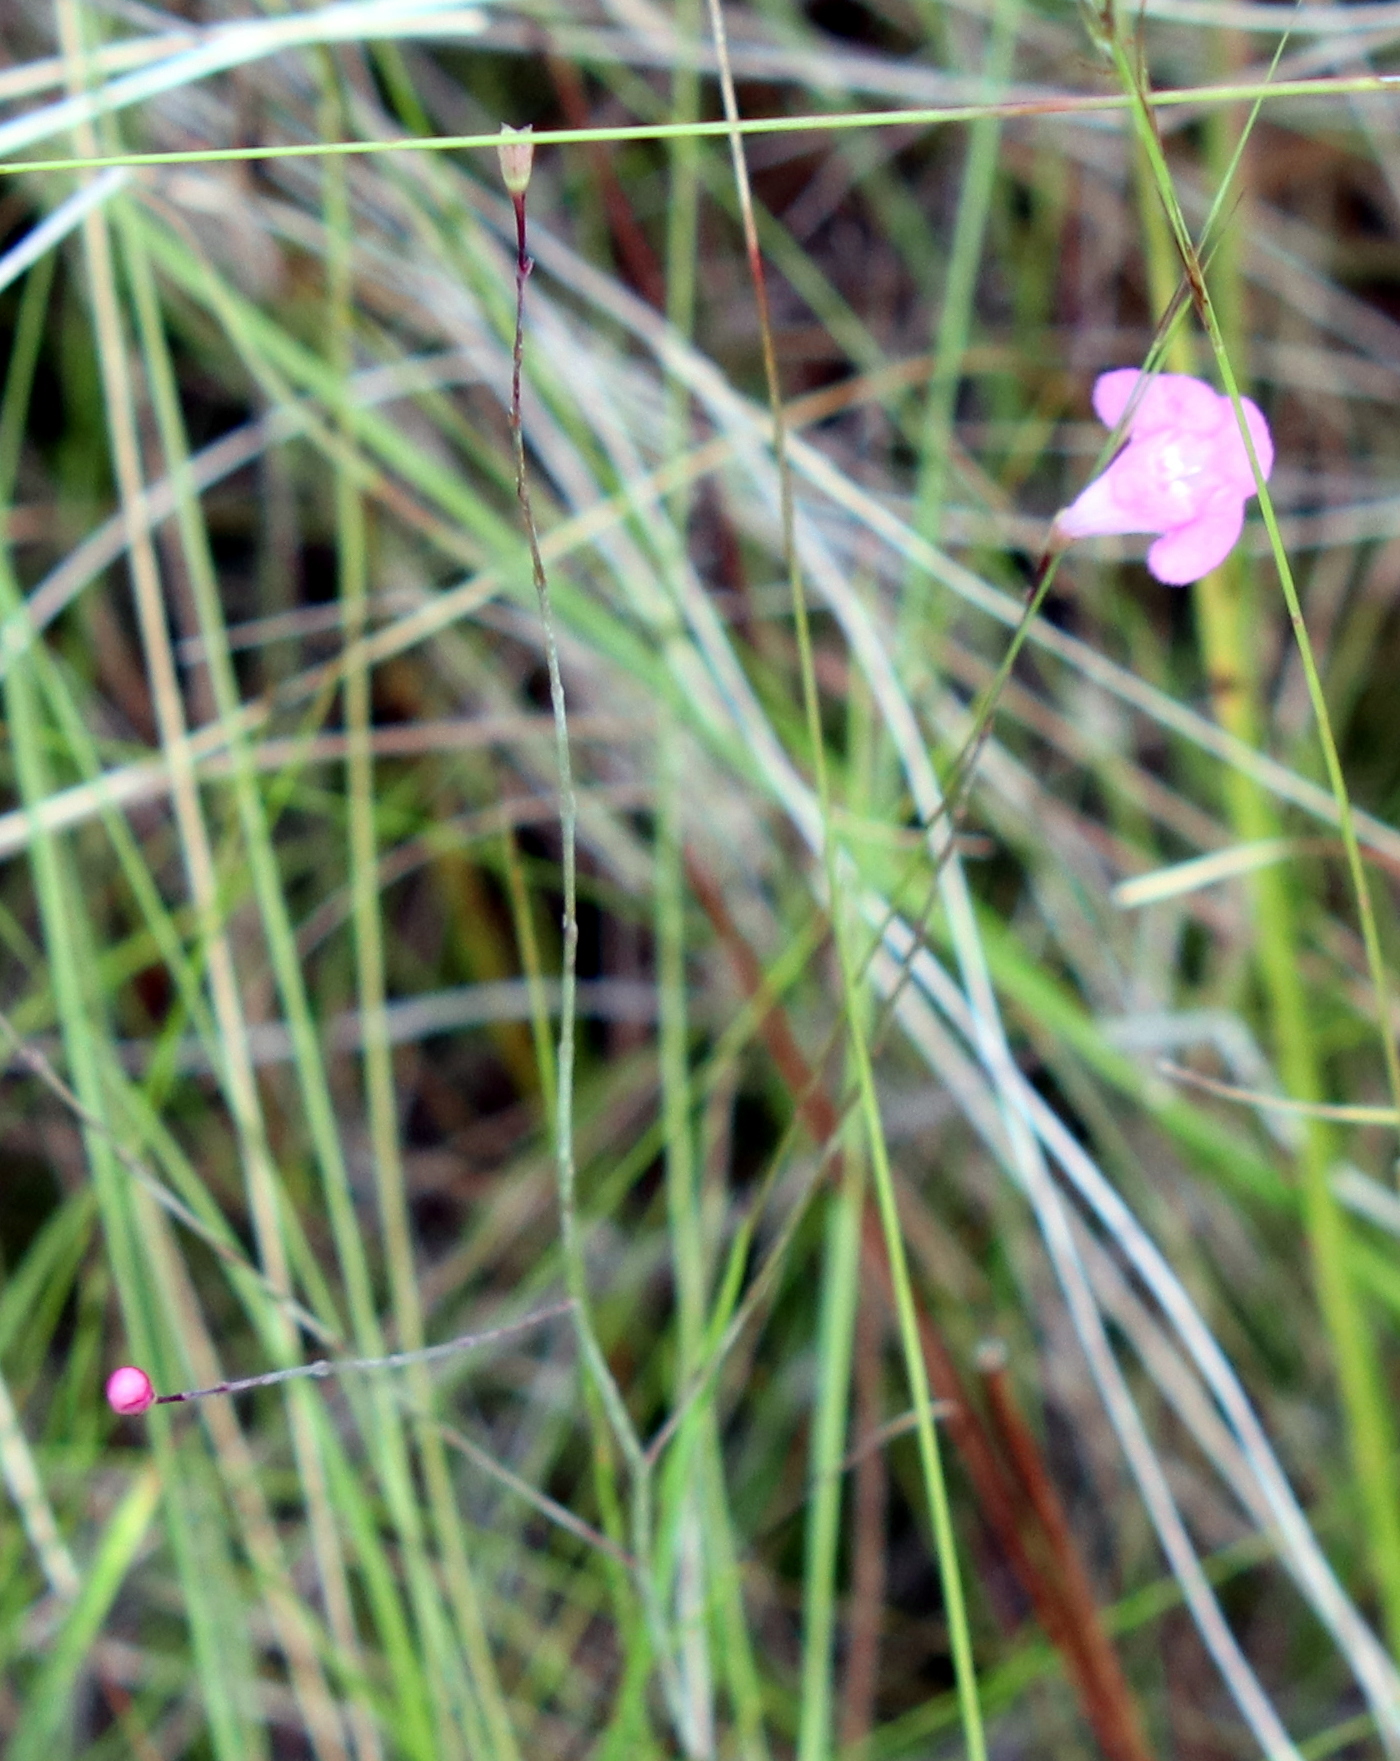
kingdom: Plantae
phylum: Tracheophyta
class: Magnoliopsida
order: Lamiales
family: Orobanchaceae
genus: Agalinis
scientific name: Agalinis filicaulis
